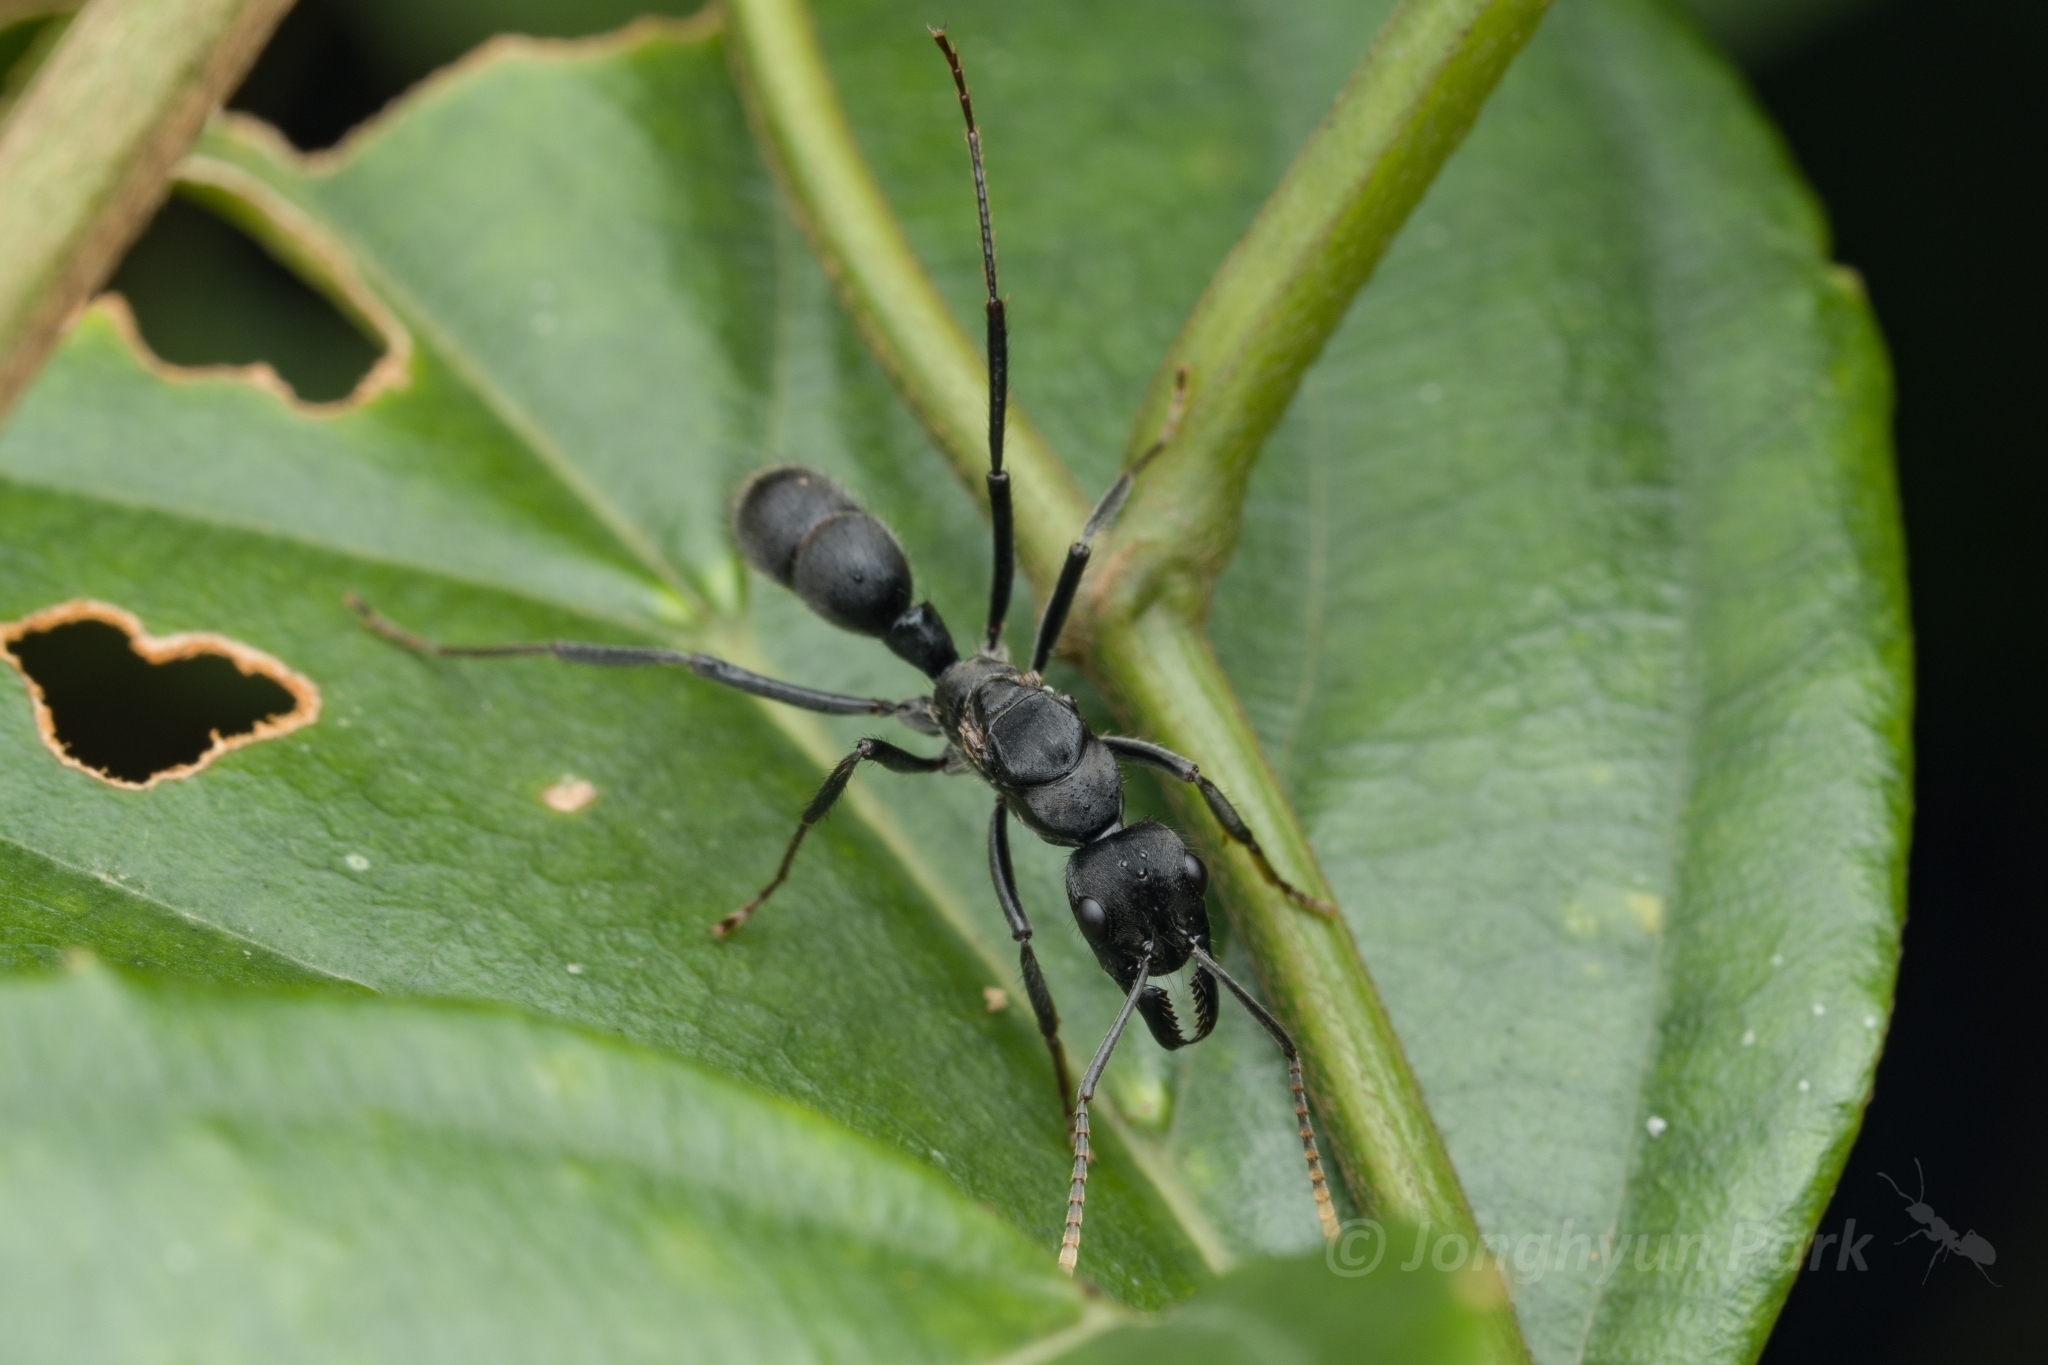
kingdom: Animalia
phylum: Arthropoda
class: Insecta
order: Hymenoptera
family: Formicidae
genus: Neoponera
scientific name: Neoponera cooki
